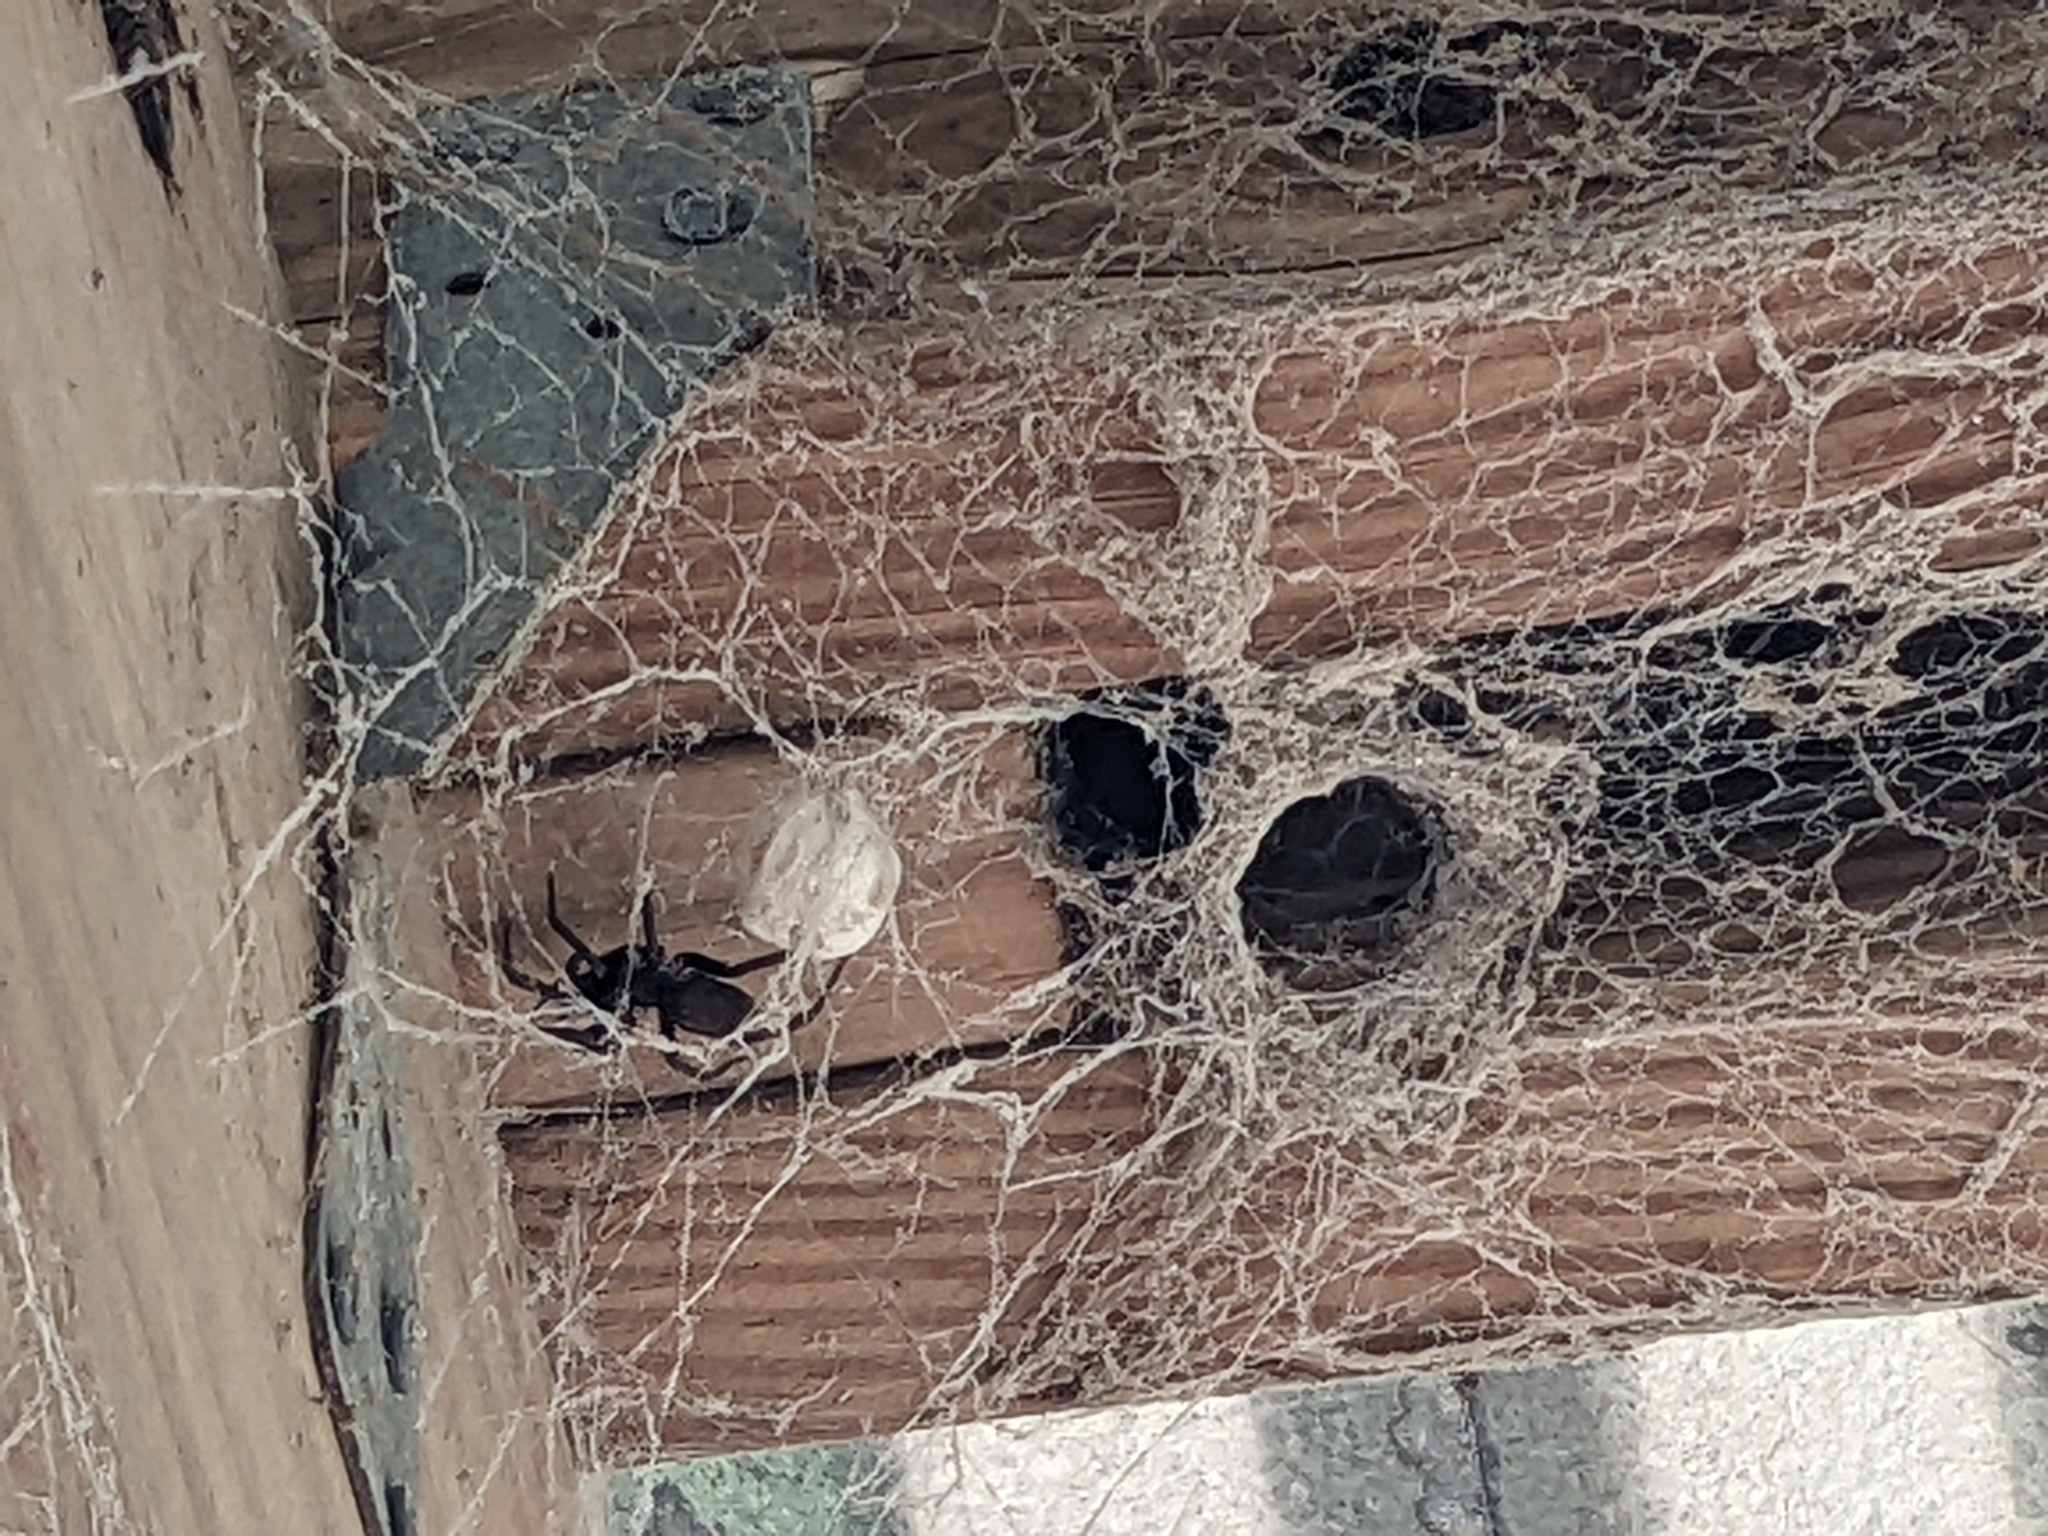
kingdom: Animalia
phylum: Arthropoda
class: Arachnida
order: Araneae
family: Filistatidae
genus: Kukulcania
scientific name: Kukulcania hibernalis
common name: Crevice weaver
